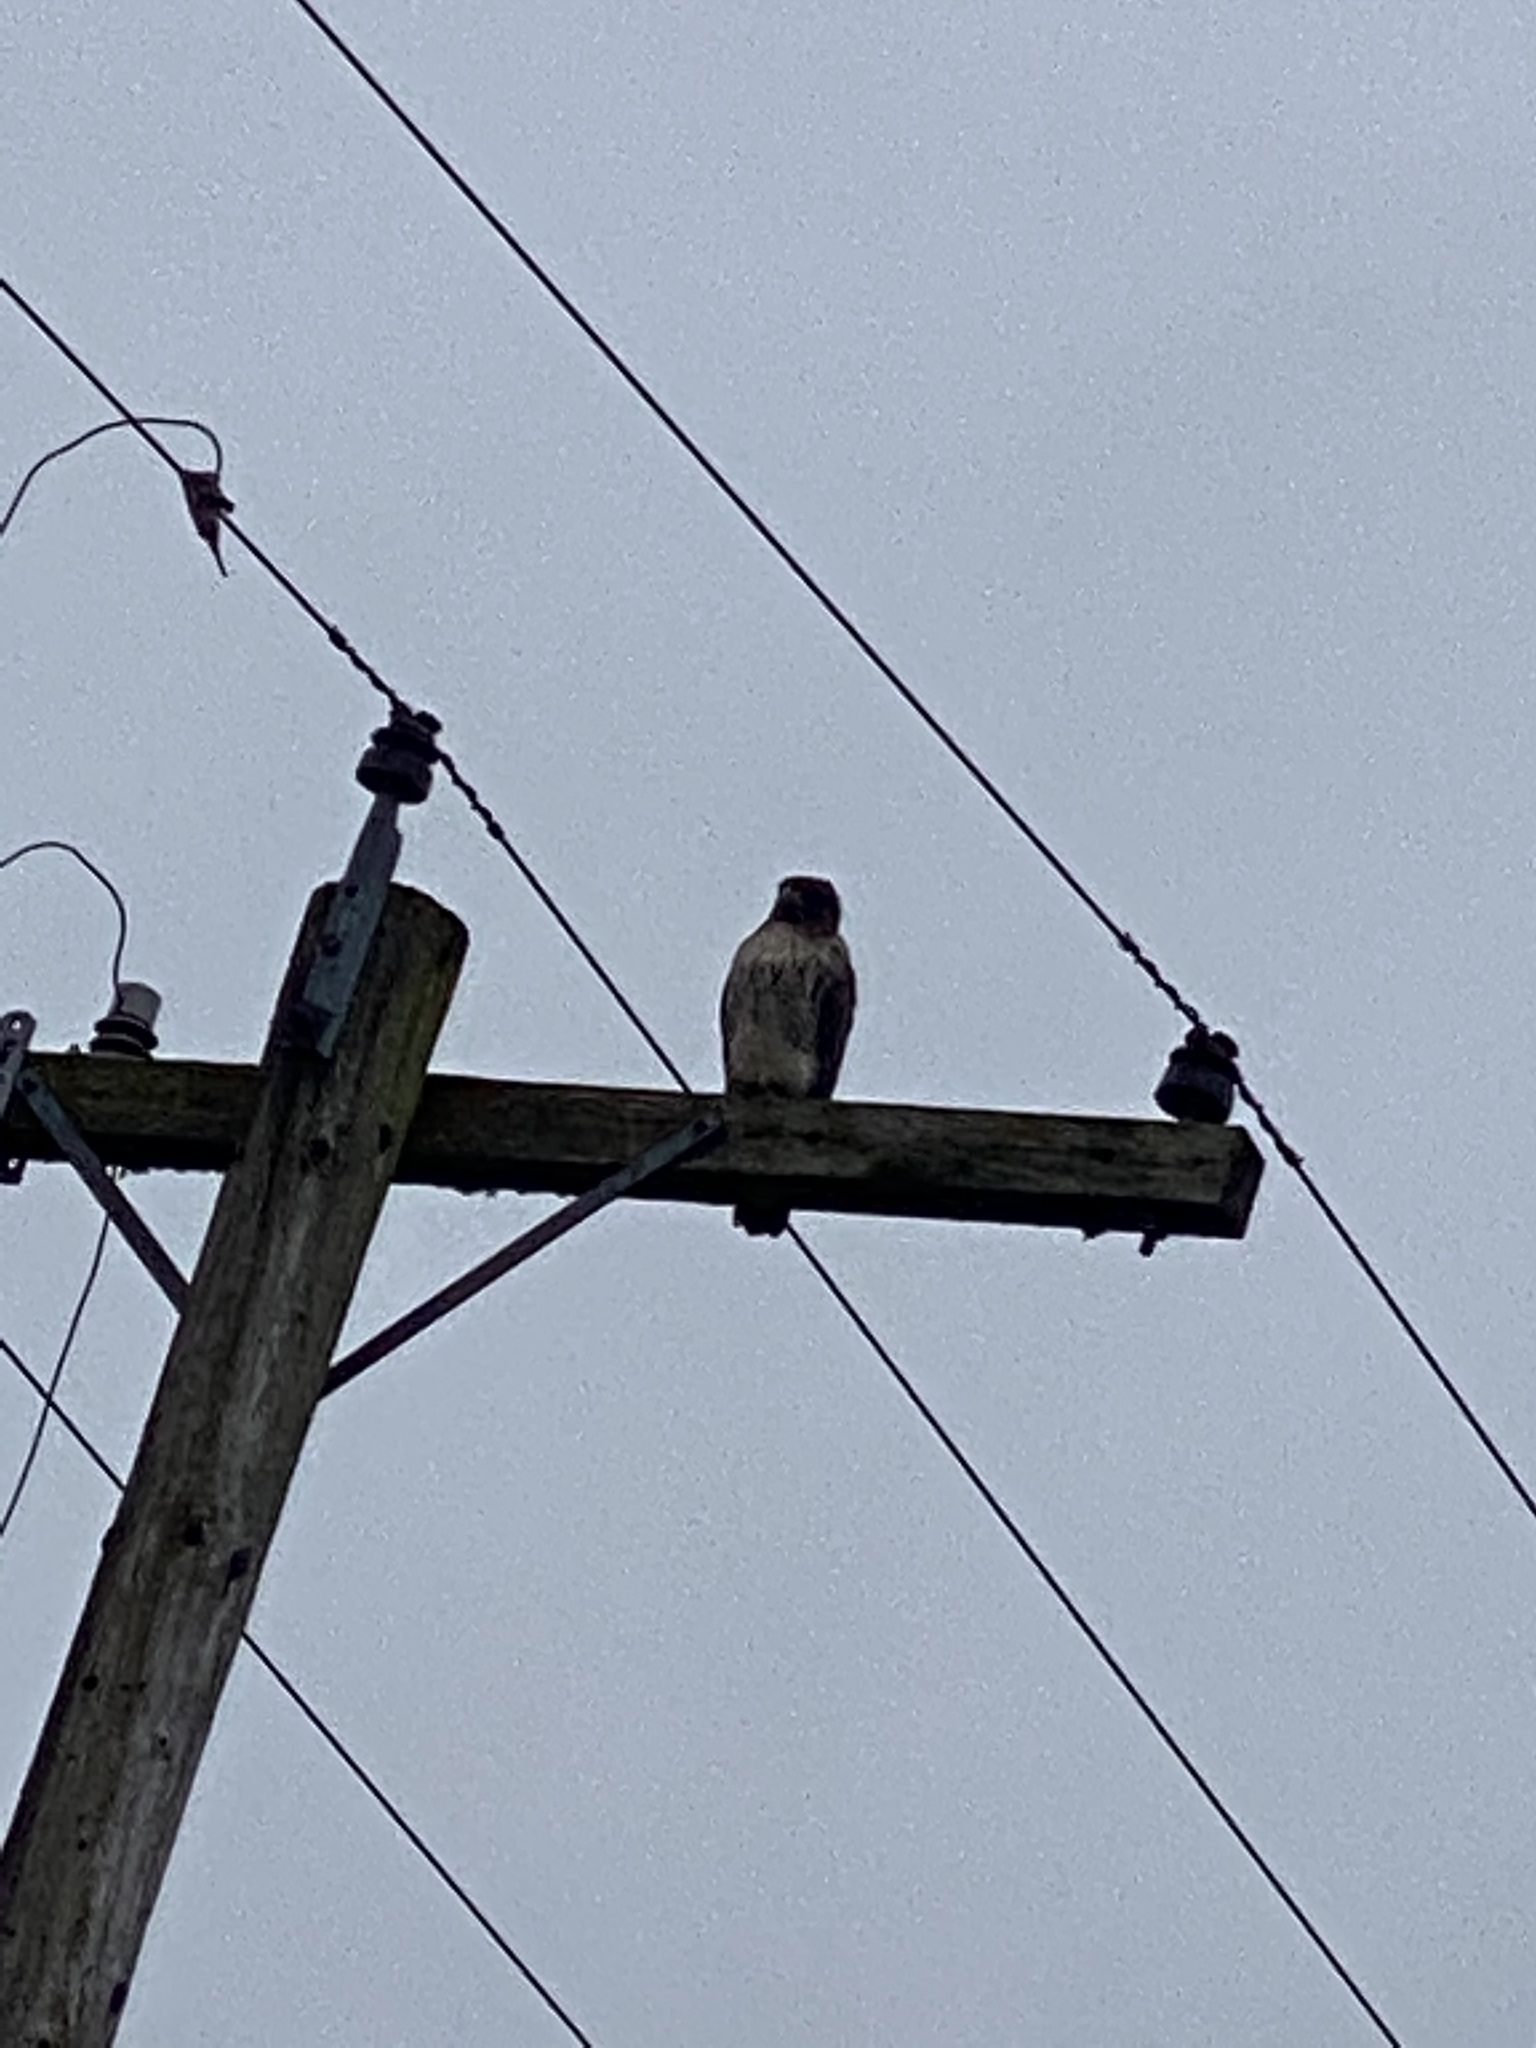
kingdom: Animalia
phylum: Chordata
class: Aves
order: Accipitriformes
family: Accipitridae
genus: Buteo
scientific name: Buteo jamaicensis
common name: Red-tailed hawk
